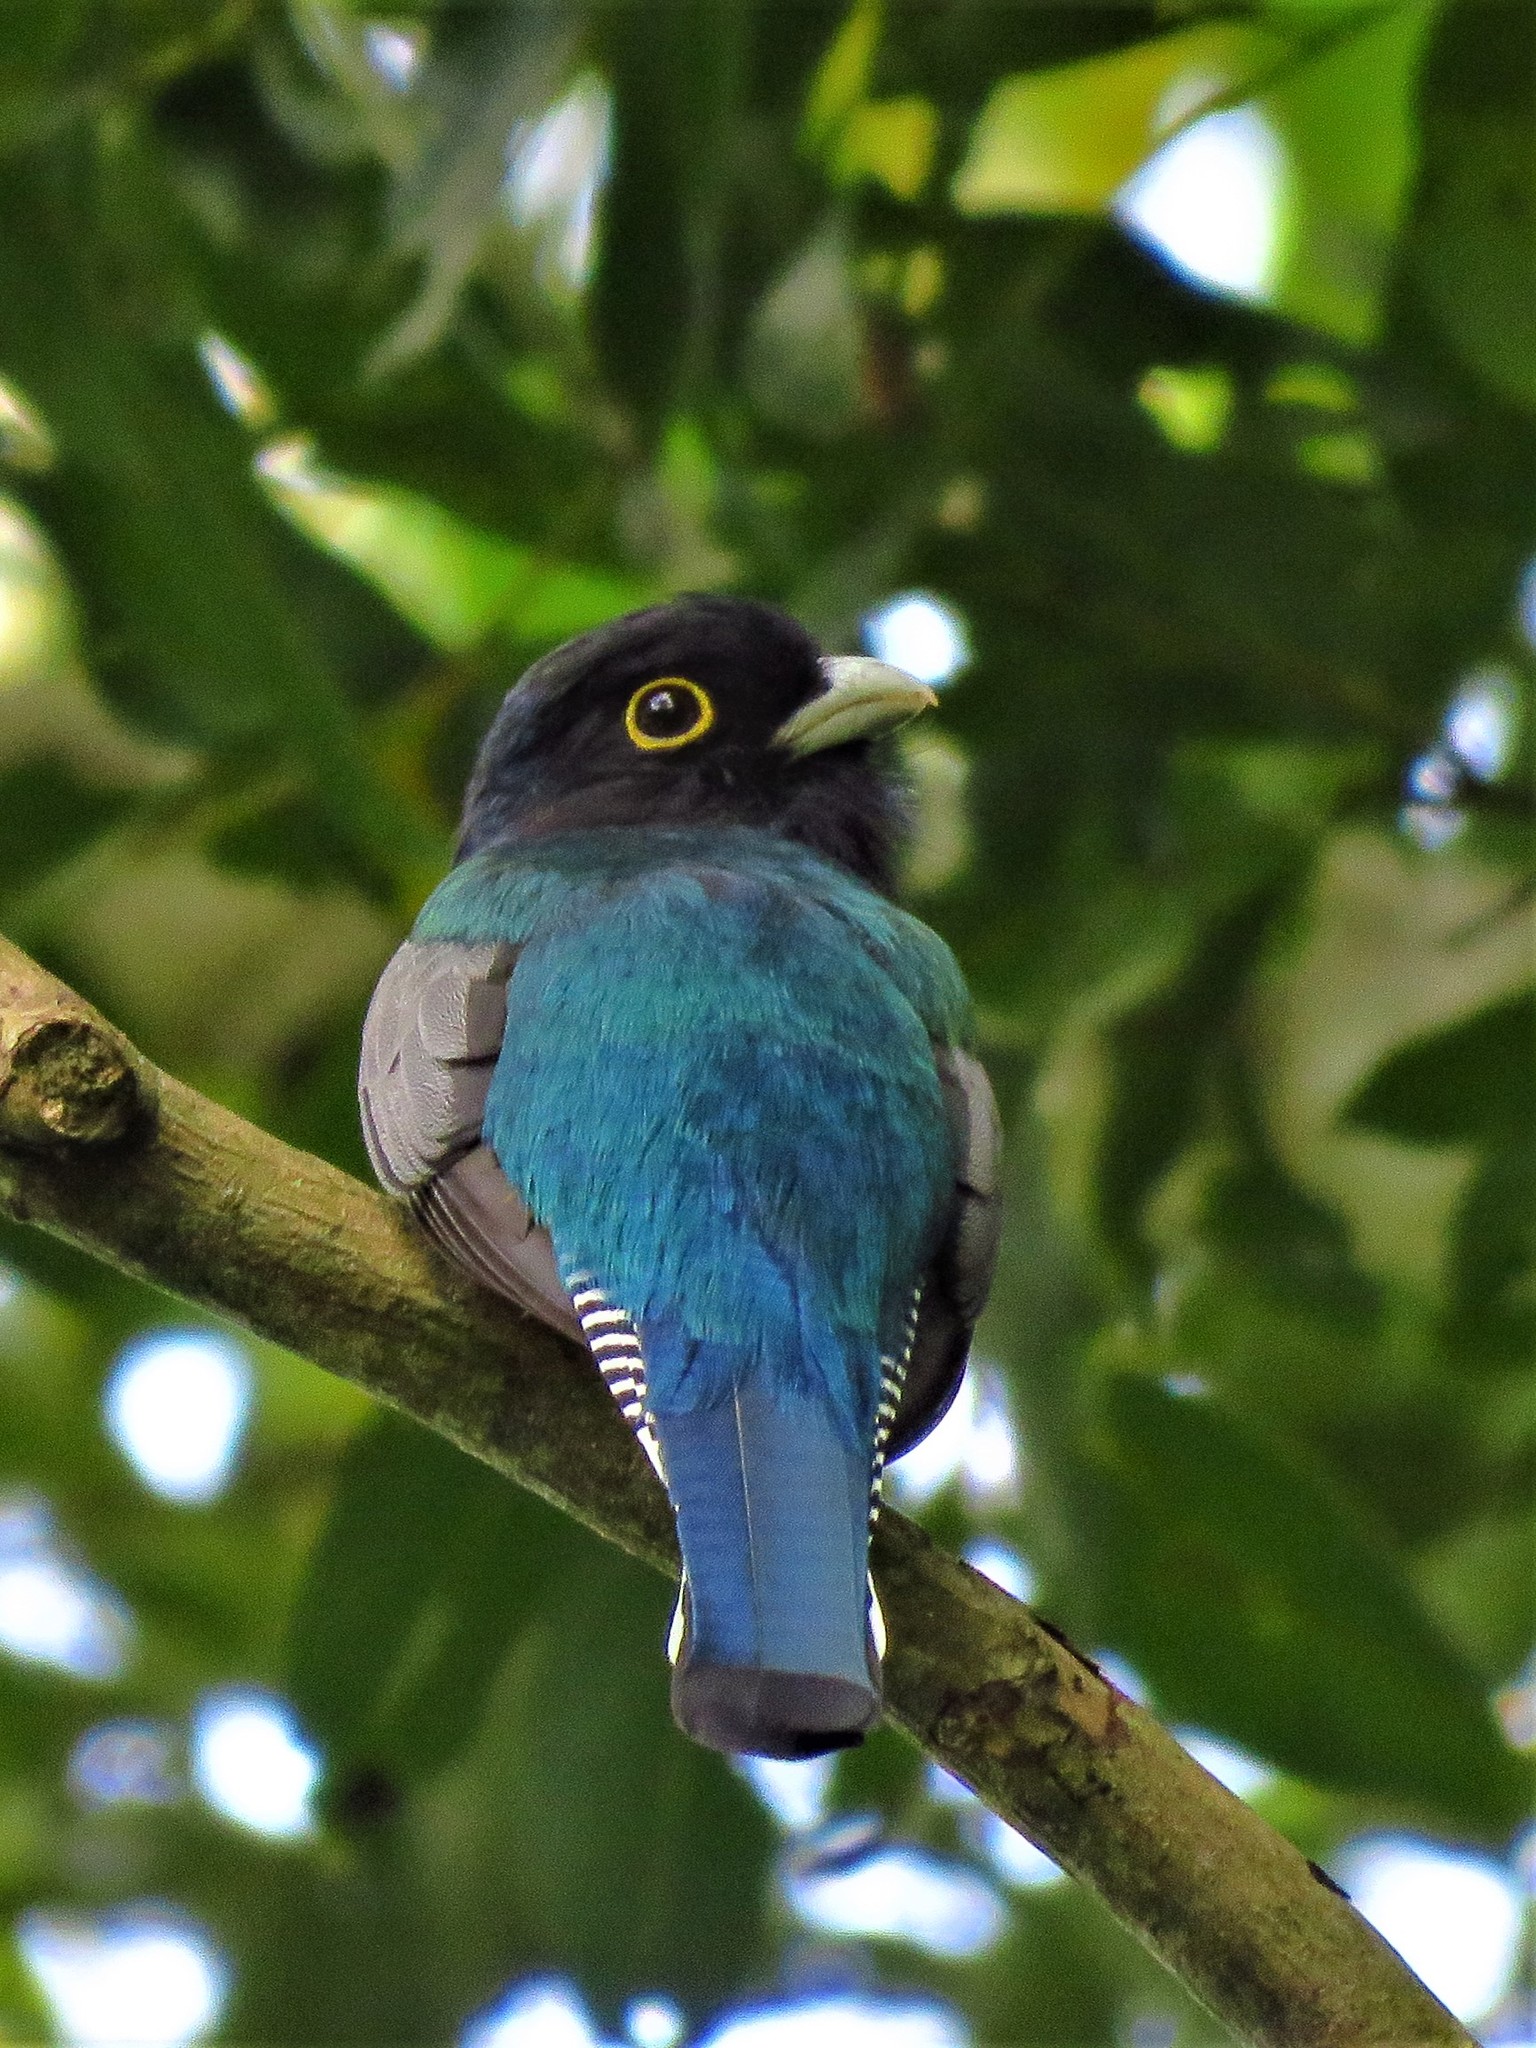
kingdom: Animalia
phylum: Chordata
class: Aves
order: Trogoniformes
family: Trogonidae
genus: Trogon
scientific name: Trogon caligatus
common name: Gartered trogon
